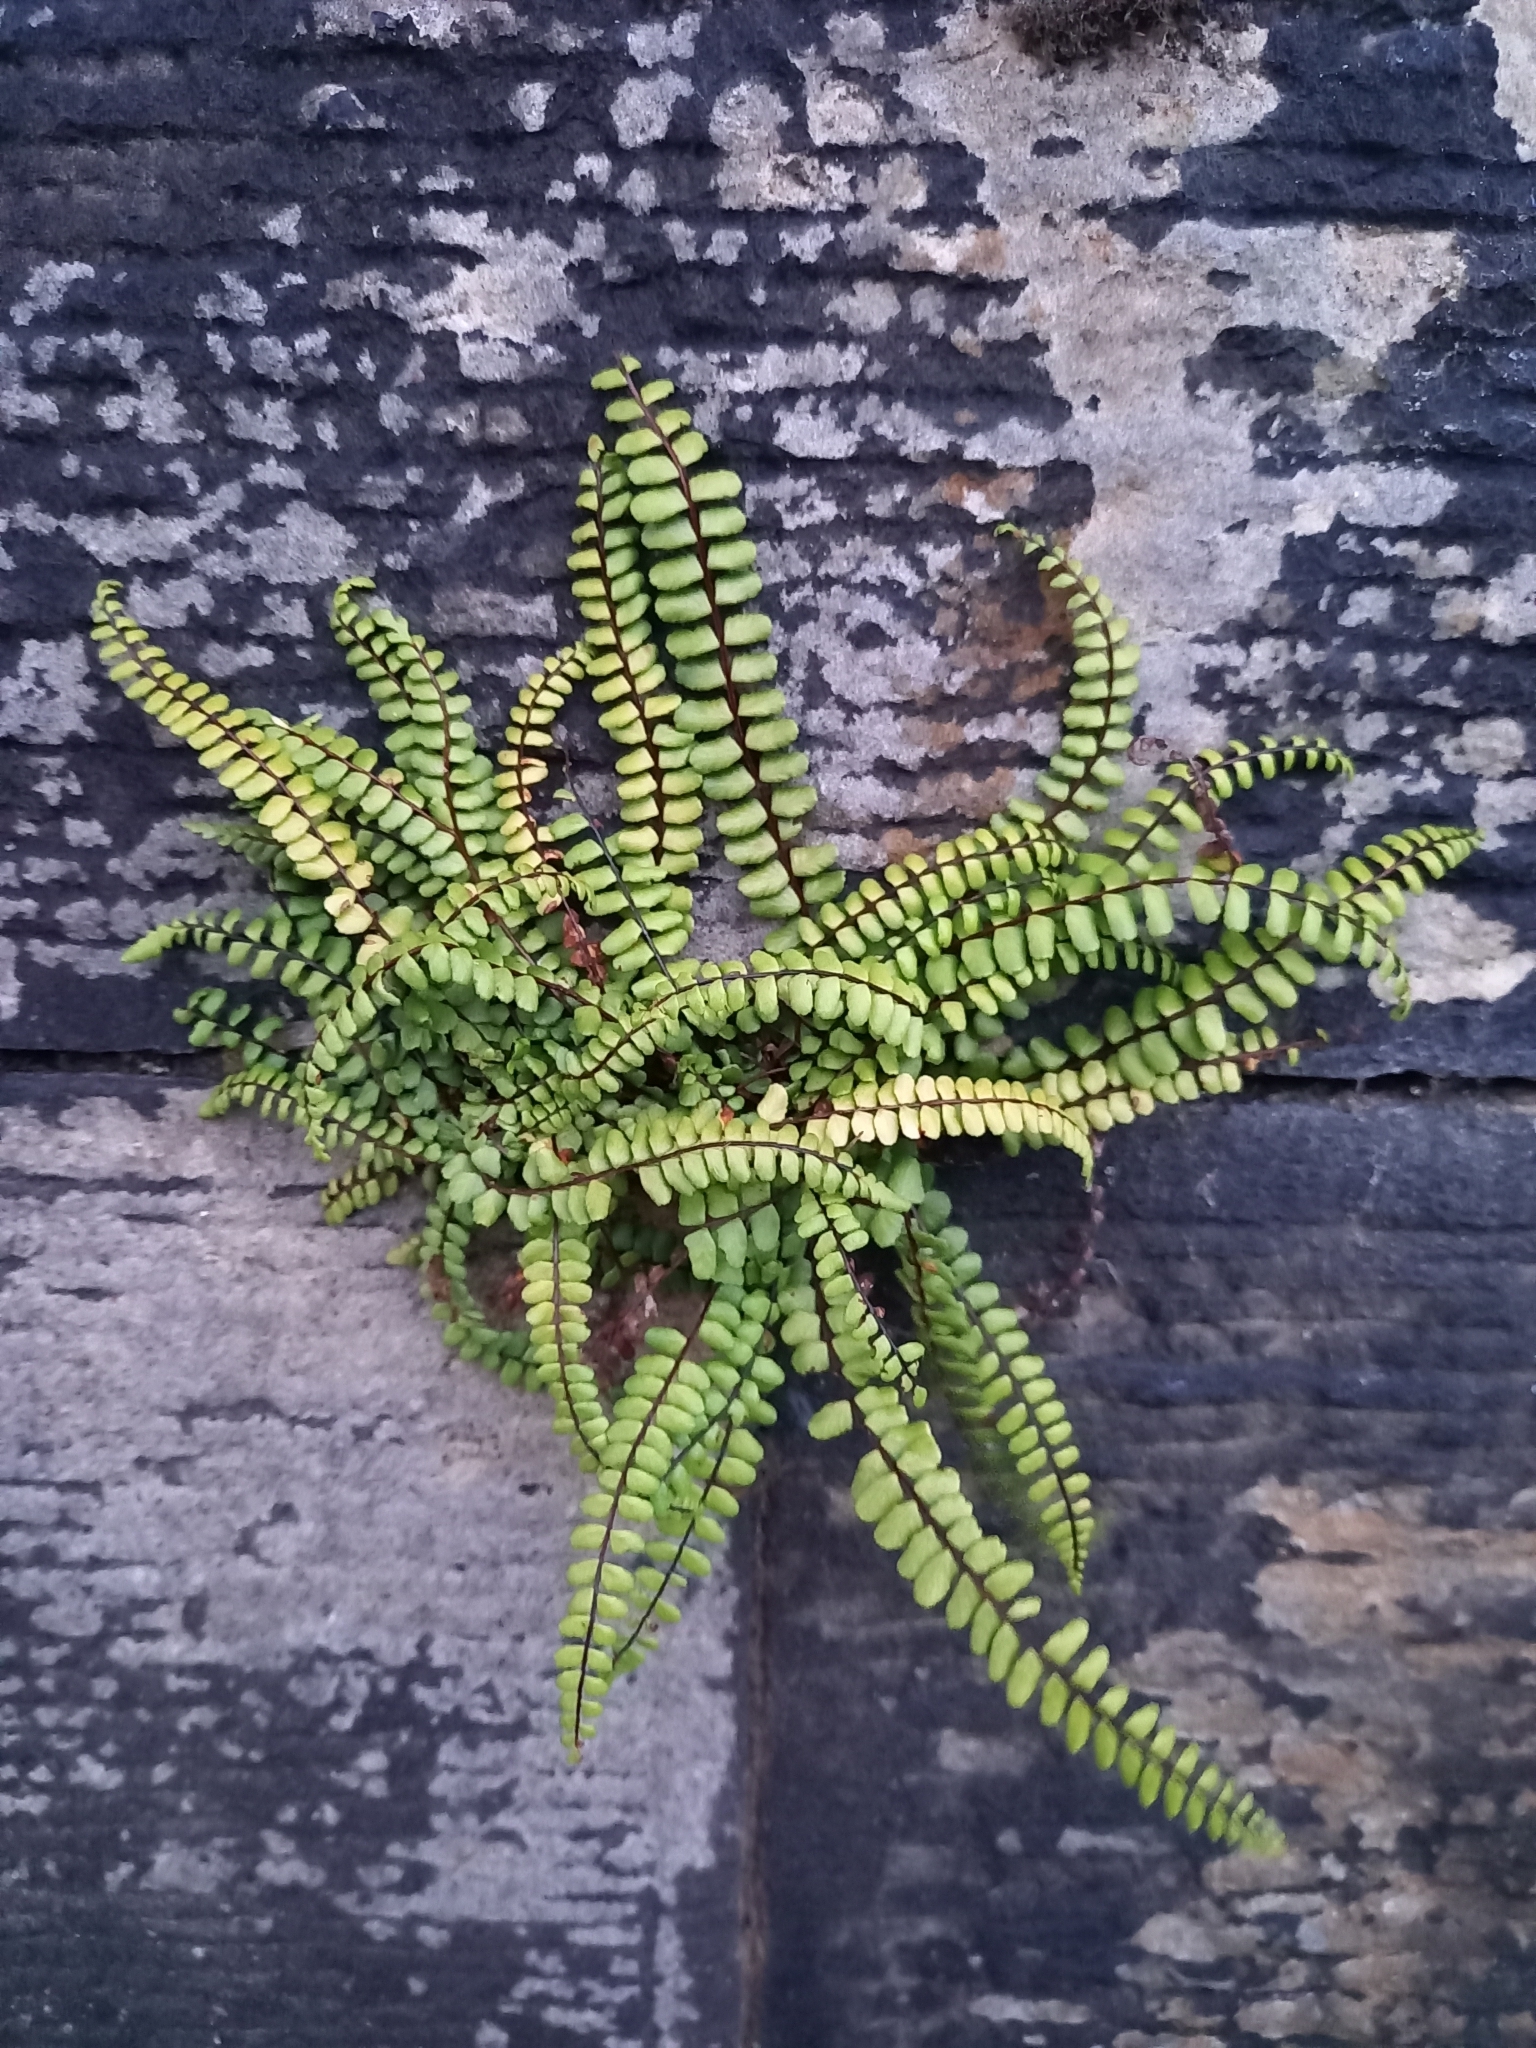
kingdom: Plantae
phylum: Tracheophyta
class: Polypodiopsida
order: Polypodiales
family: Aspleniaceae
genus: Asplenium
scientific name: Asplenium trichomanes
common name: Maidenhair spleenwort
